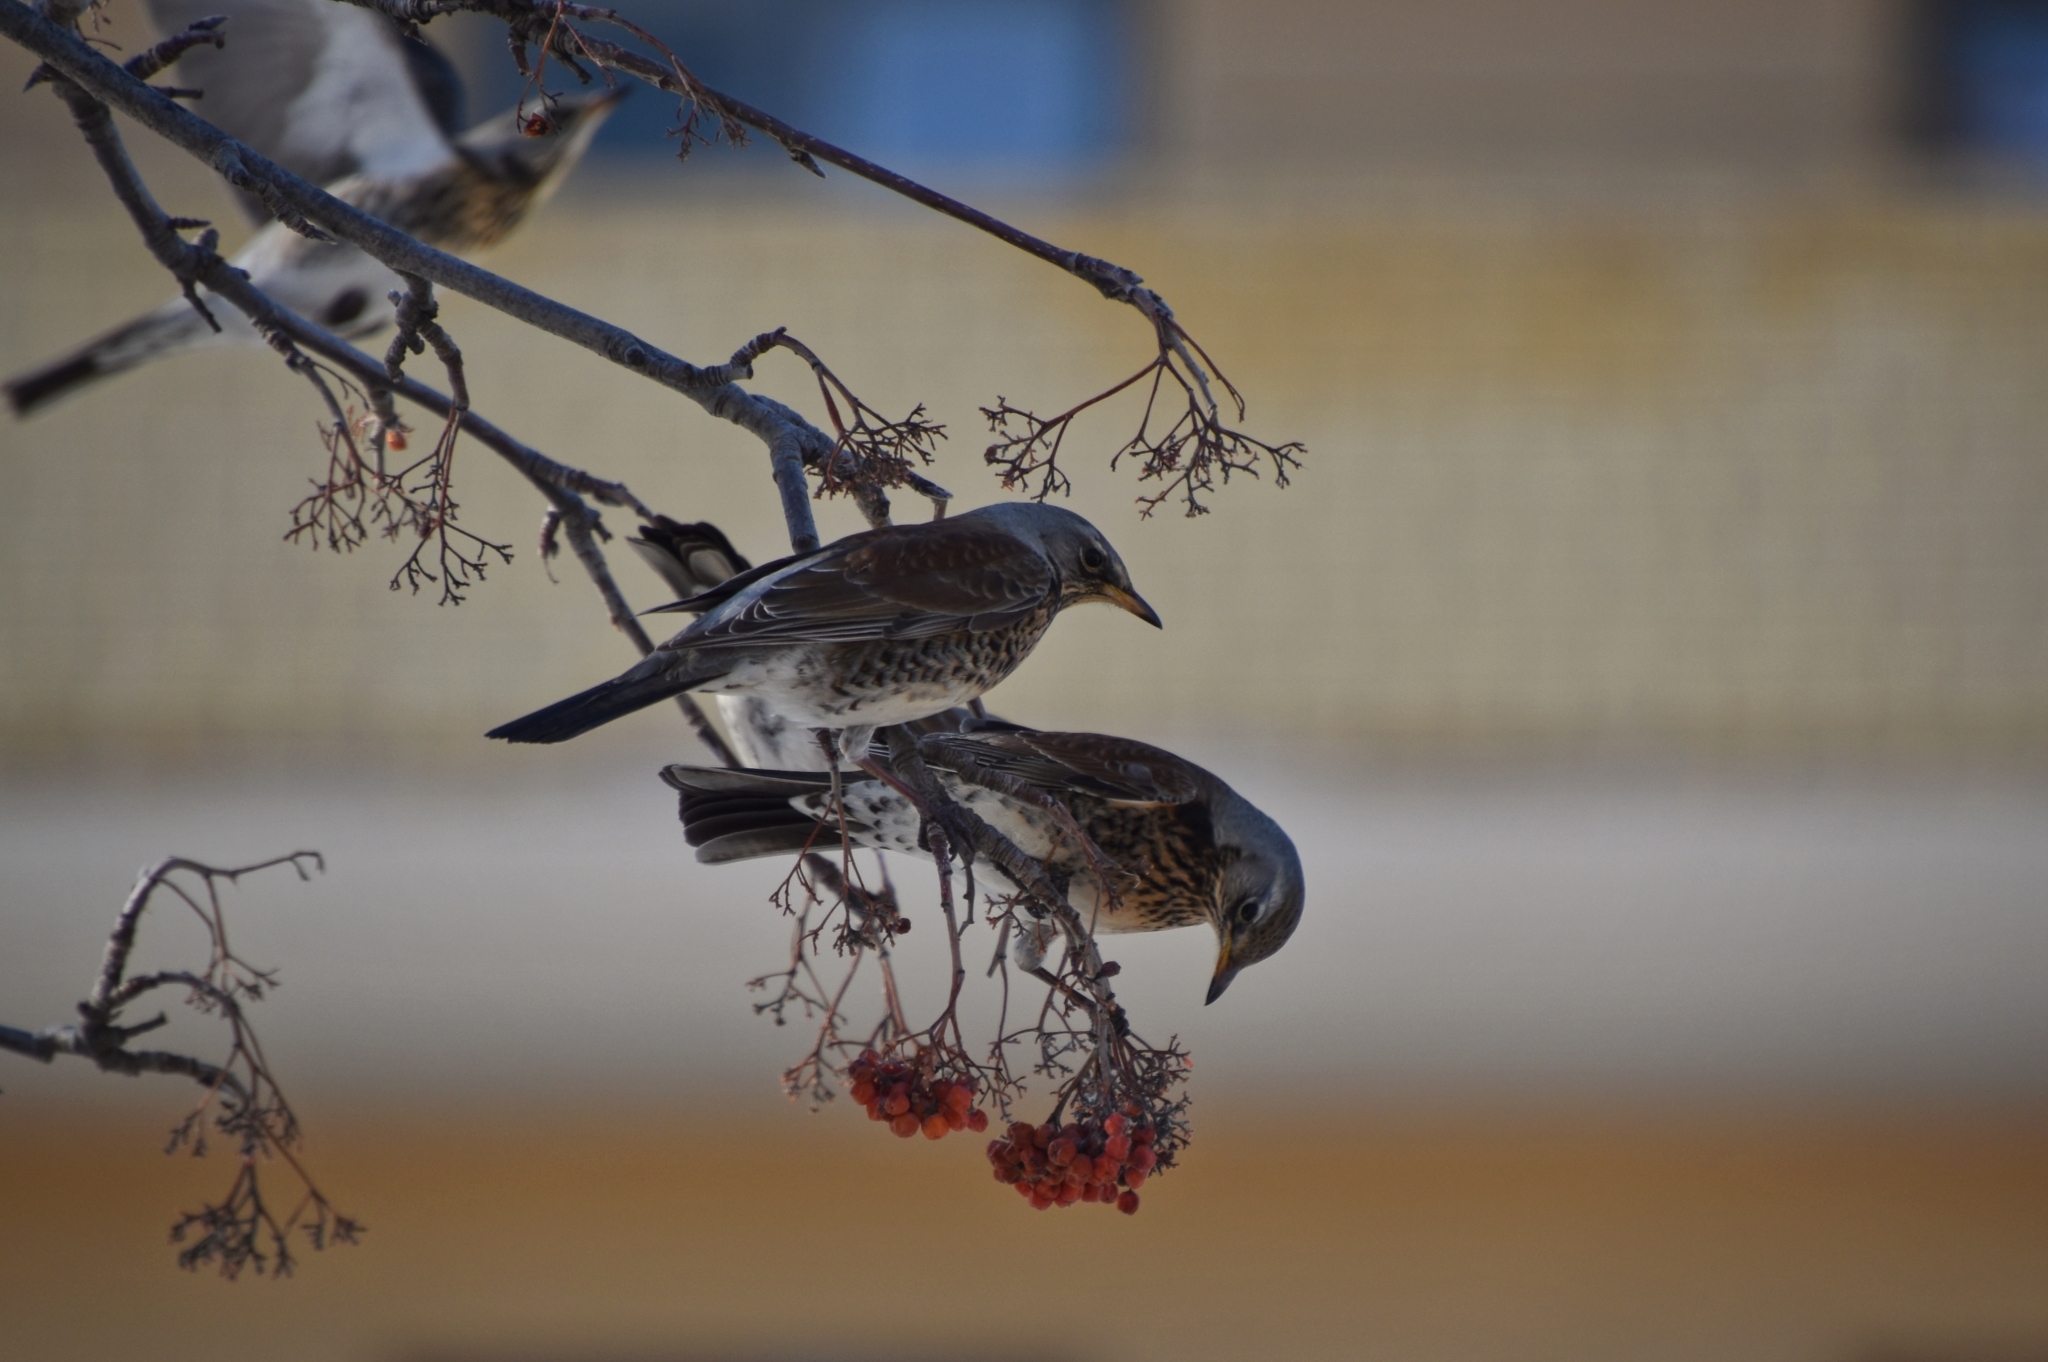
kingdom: Animalia
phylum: Chordata
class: Aves
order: Passeriformes
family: Turdidae
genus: Turdus
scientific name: Turdus pilaris
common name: Fieldfare
